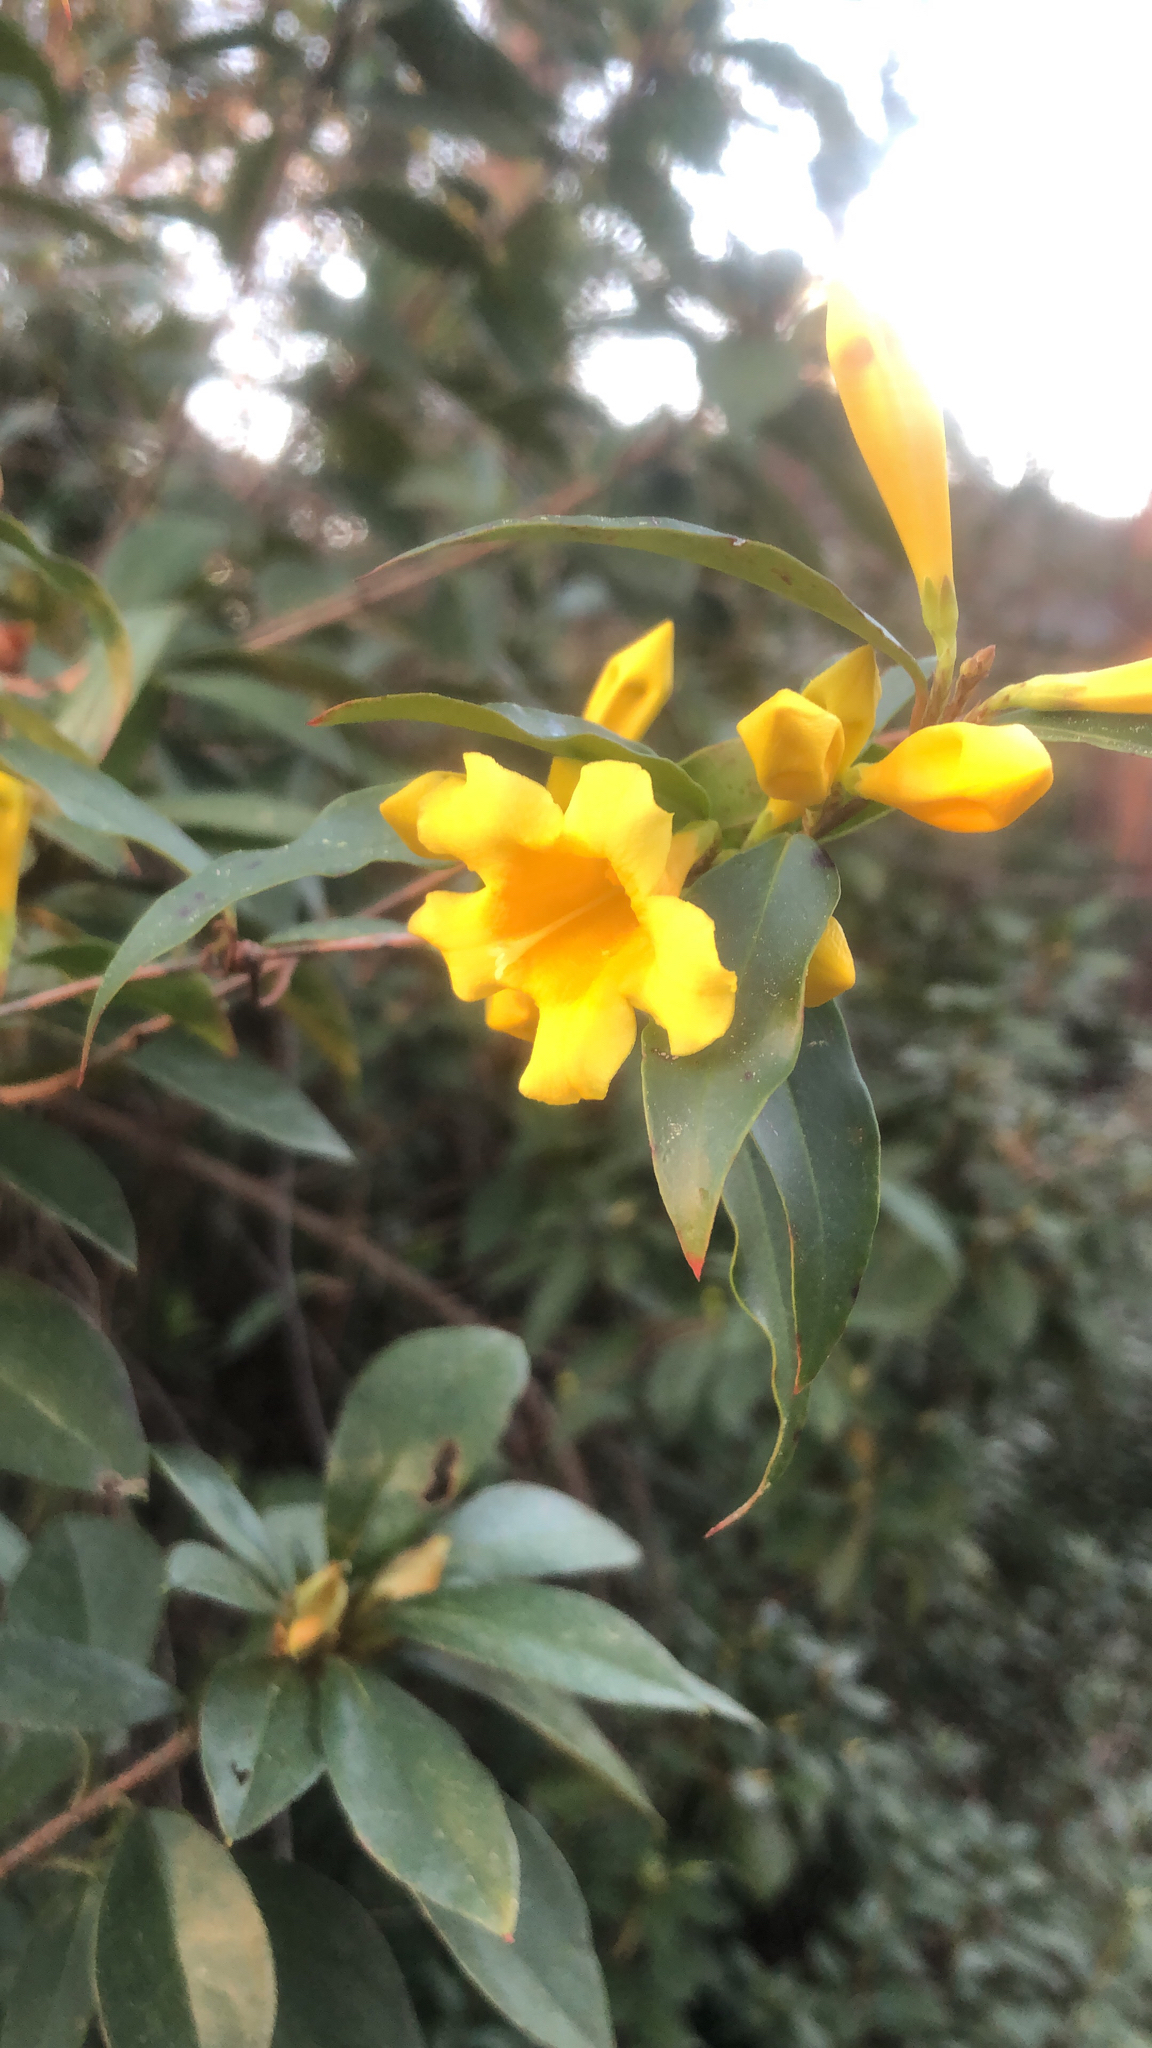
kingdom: Plantae
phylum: Tracheophyta
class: Magnoliopsida
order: Gentianales
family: Gelsemiaceae
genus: Gelsemium
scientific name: Gelsemium sempervirens
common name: Carolina-jasmine
